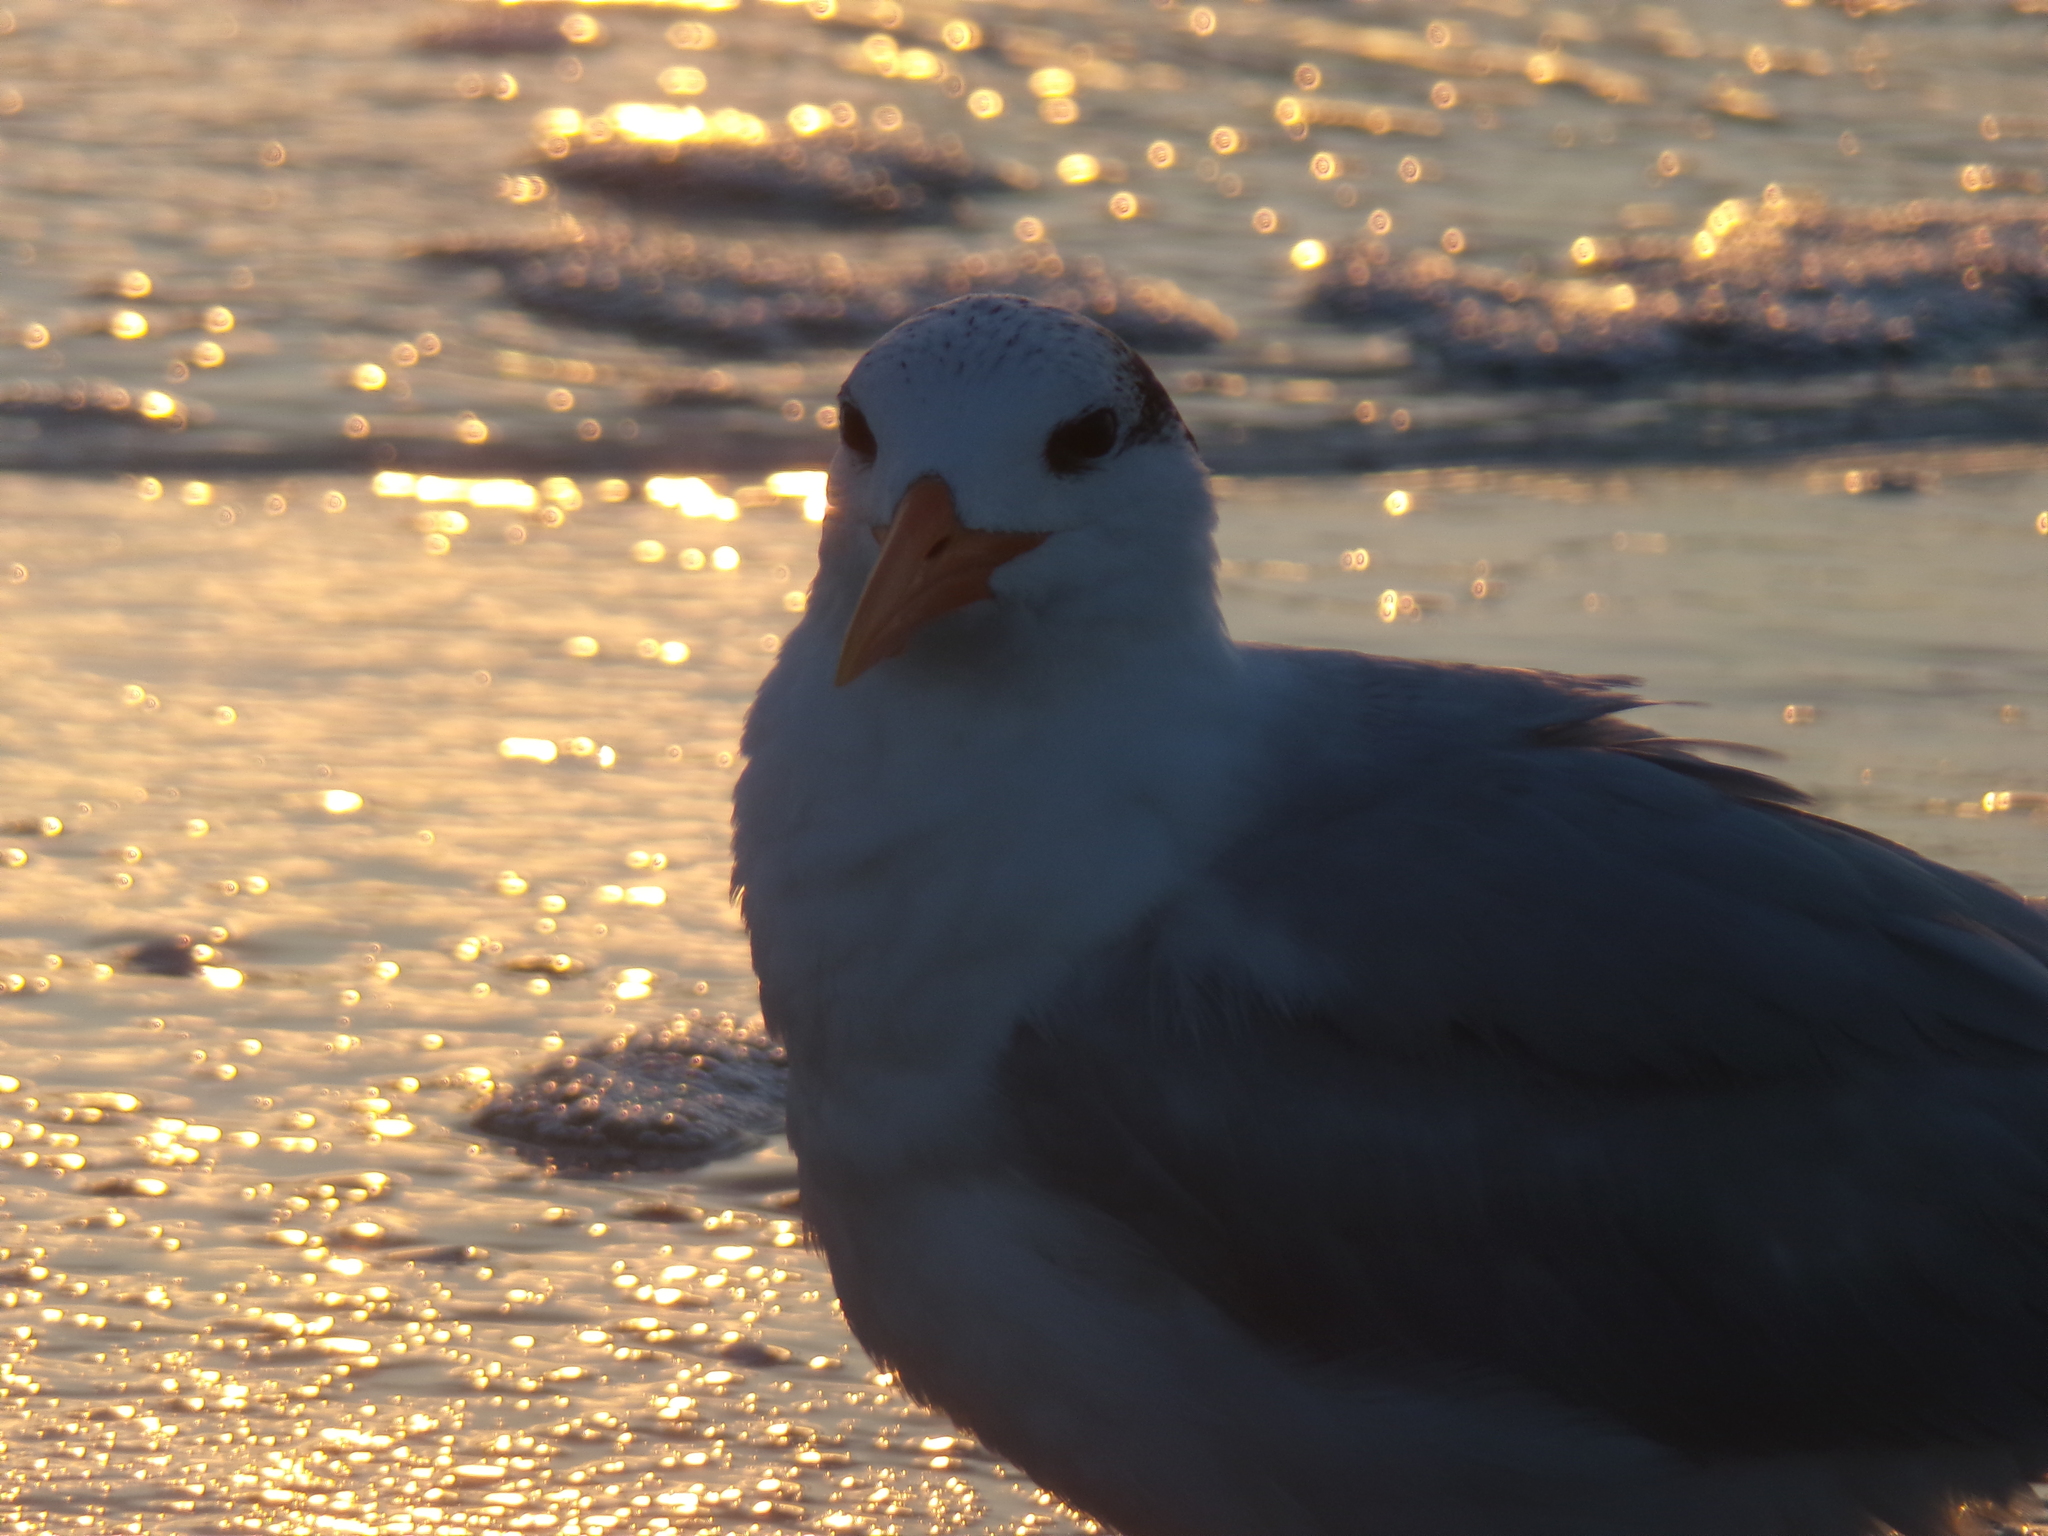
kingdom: Animalia
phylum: Chordata
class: Aves
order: Charadriiformes
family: Laridae
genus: Thalasseus
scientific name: Thalasseus maximus
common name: Royal tern
